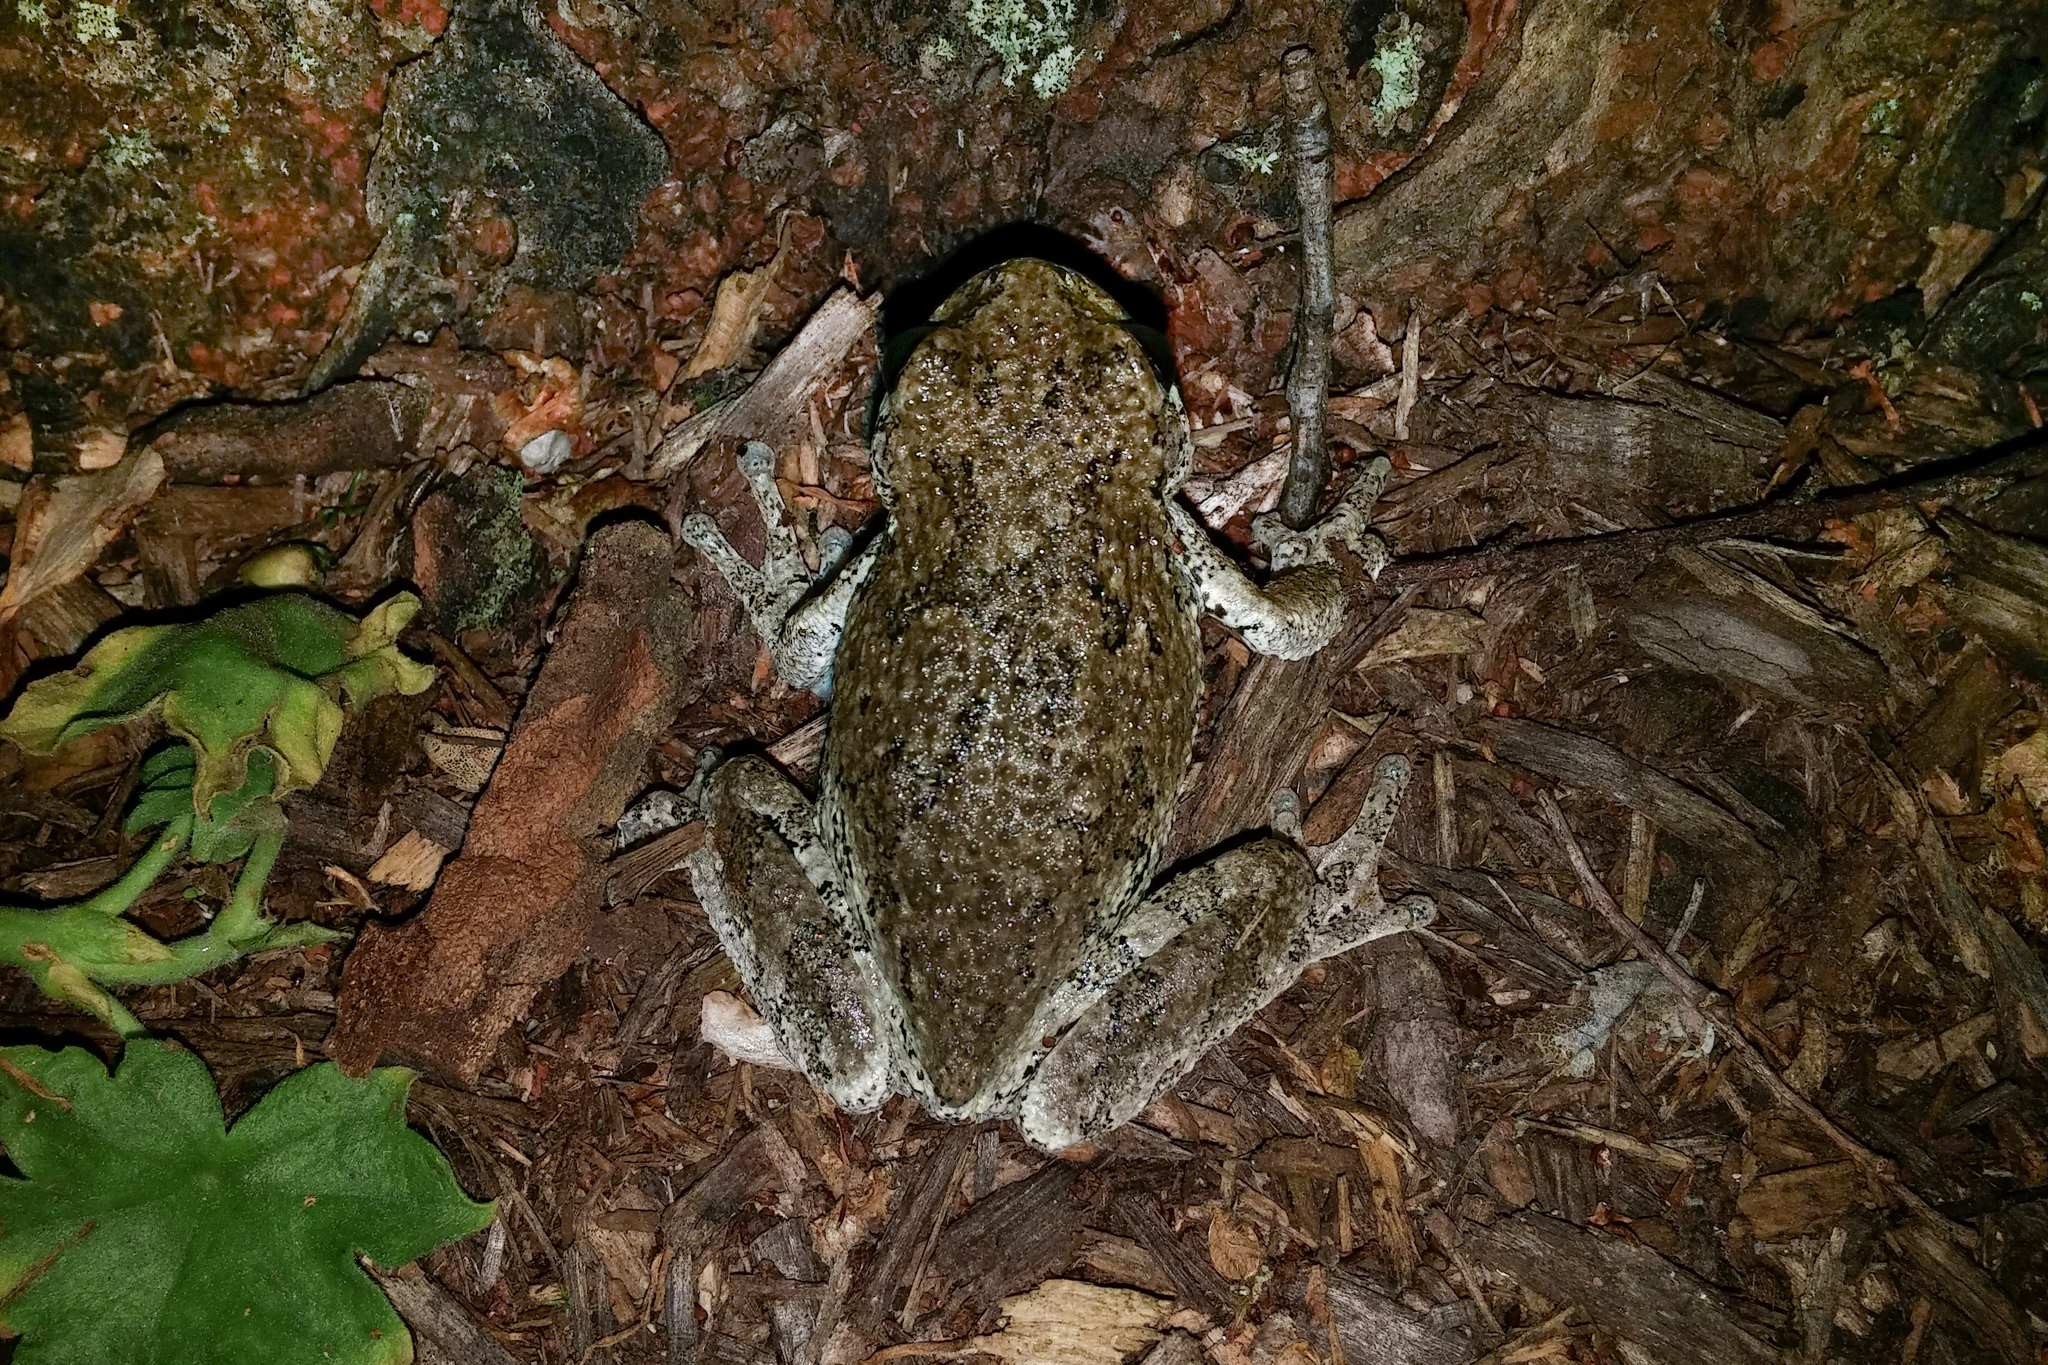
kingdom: Animalia
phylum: Chordata
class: Amphibia
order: Anura
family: Hylidae
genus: Dryophytes
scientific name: Dryophytes versicolor
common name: Gray treefrog
